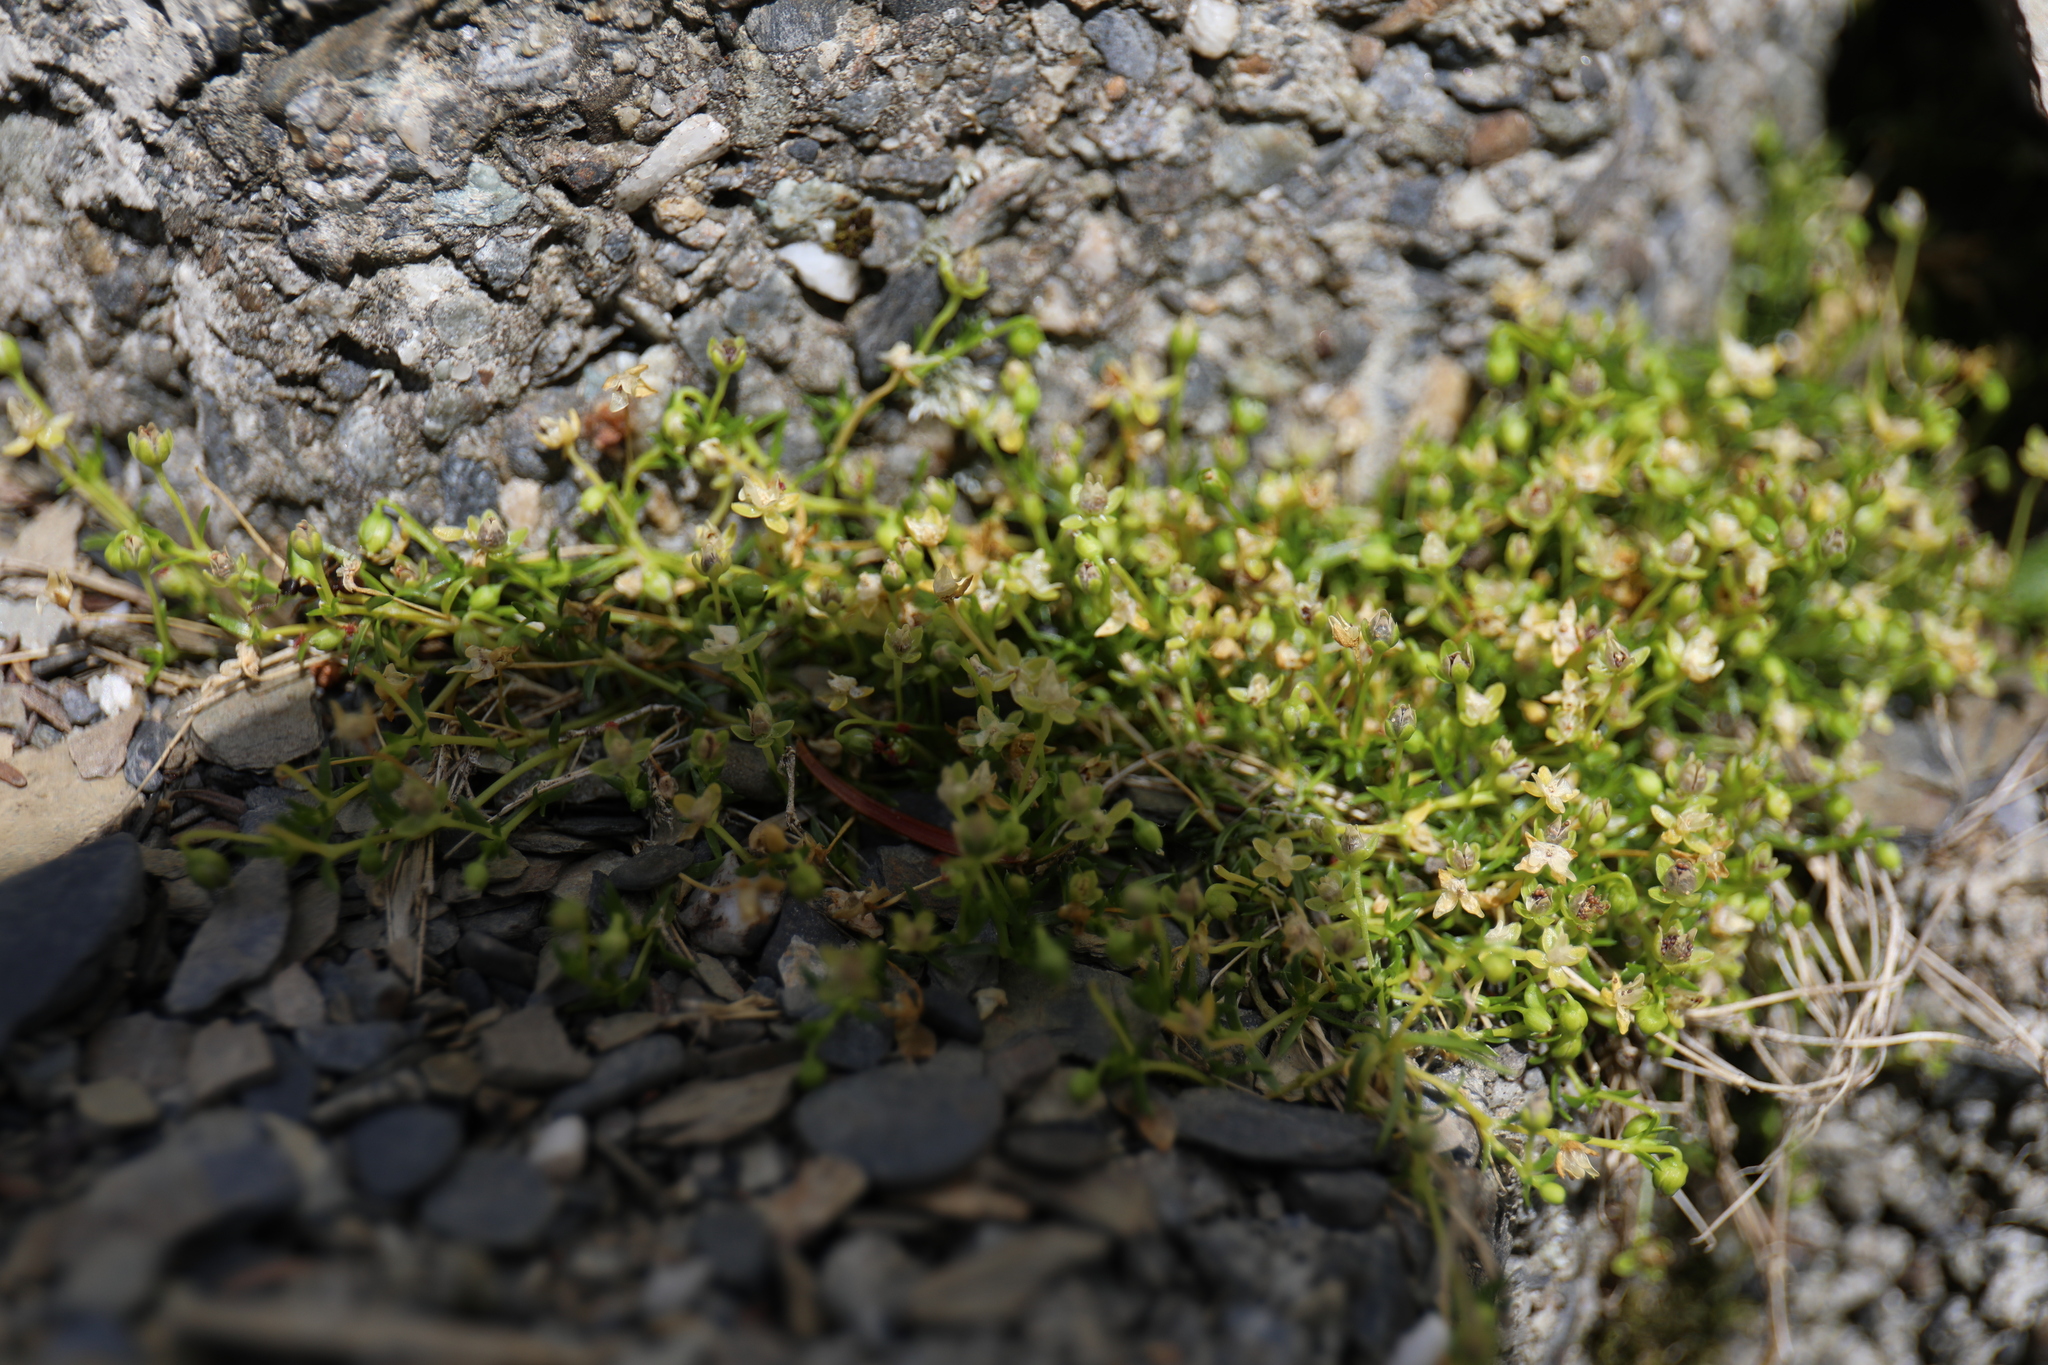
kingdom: Plantae
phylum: Tracheophyta
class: Magnoliopsida
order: Caryophyllales
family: Caryophyllaceae
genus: Sagina
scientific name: Sagina procumbens
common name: Procumbent pearlwort
